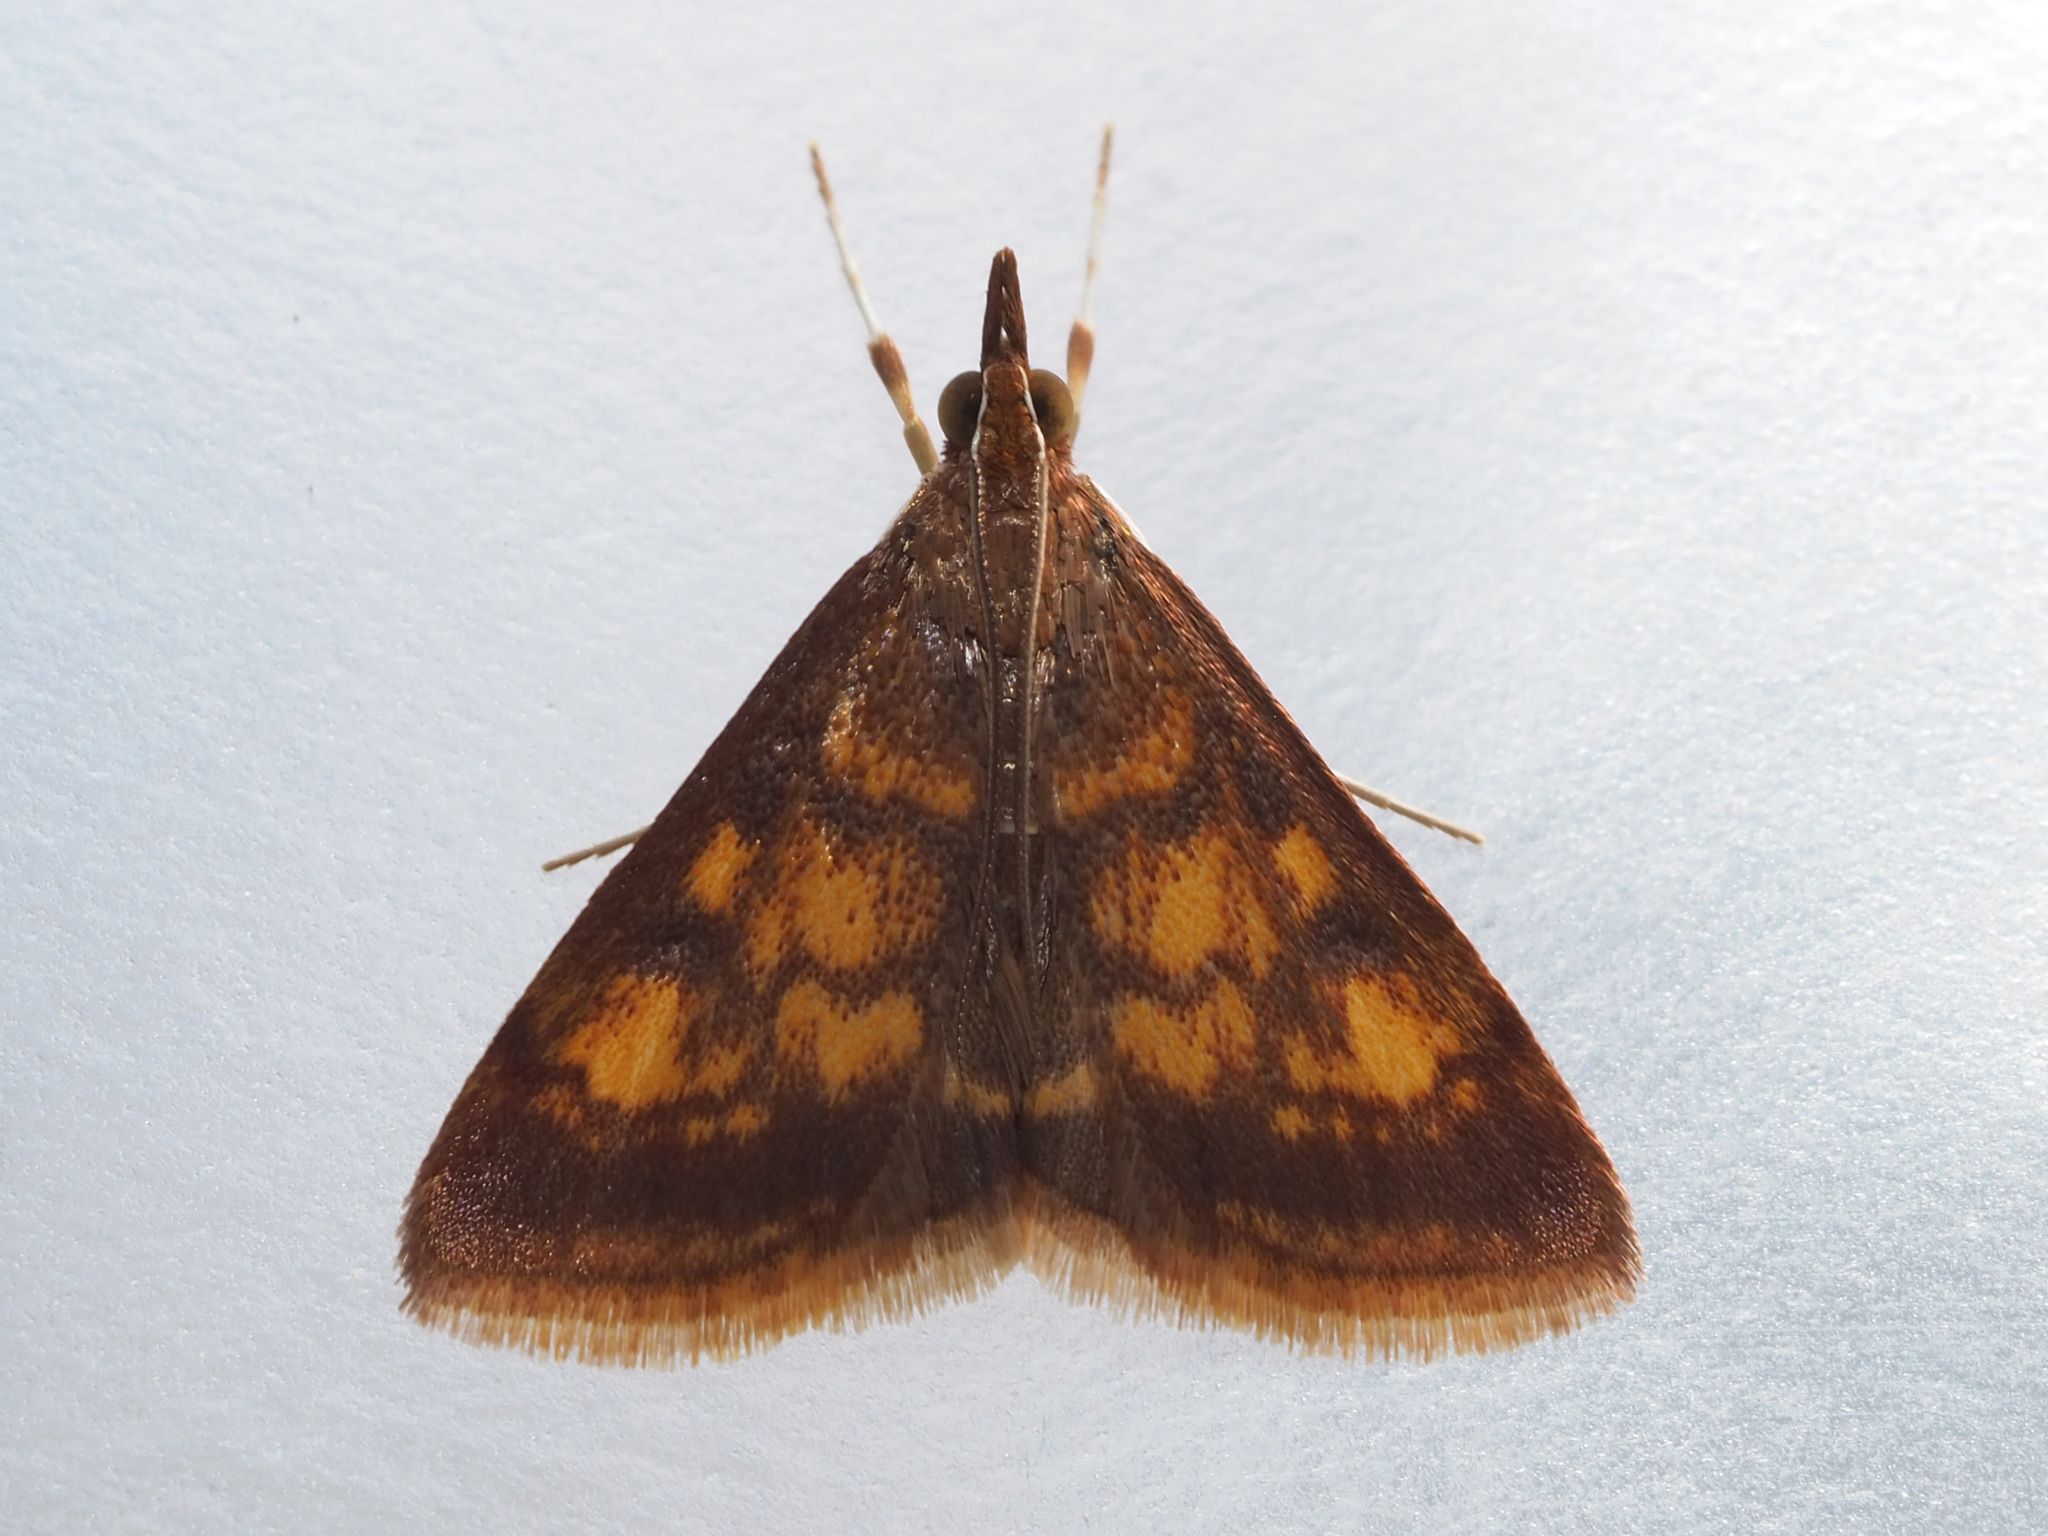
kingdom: Animalia
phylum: Arthropoda
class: Insecta
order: Lepidoptera
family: Crambidae
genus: Pyrausta
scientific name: Pyrausta acrionalis
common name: Mint-loving pyrausta moth
